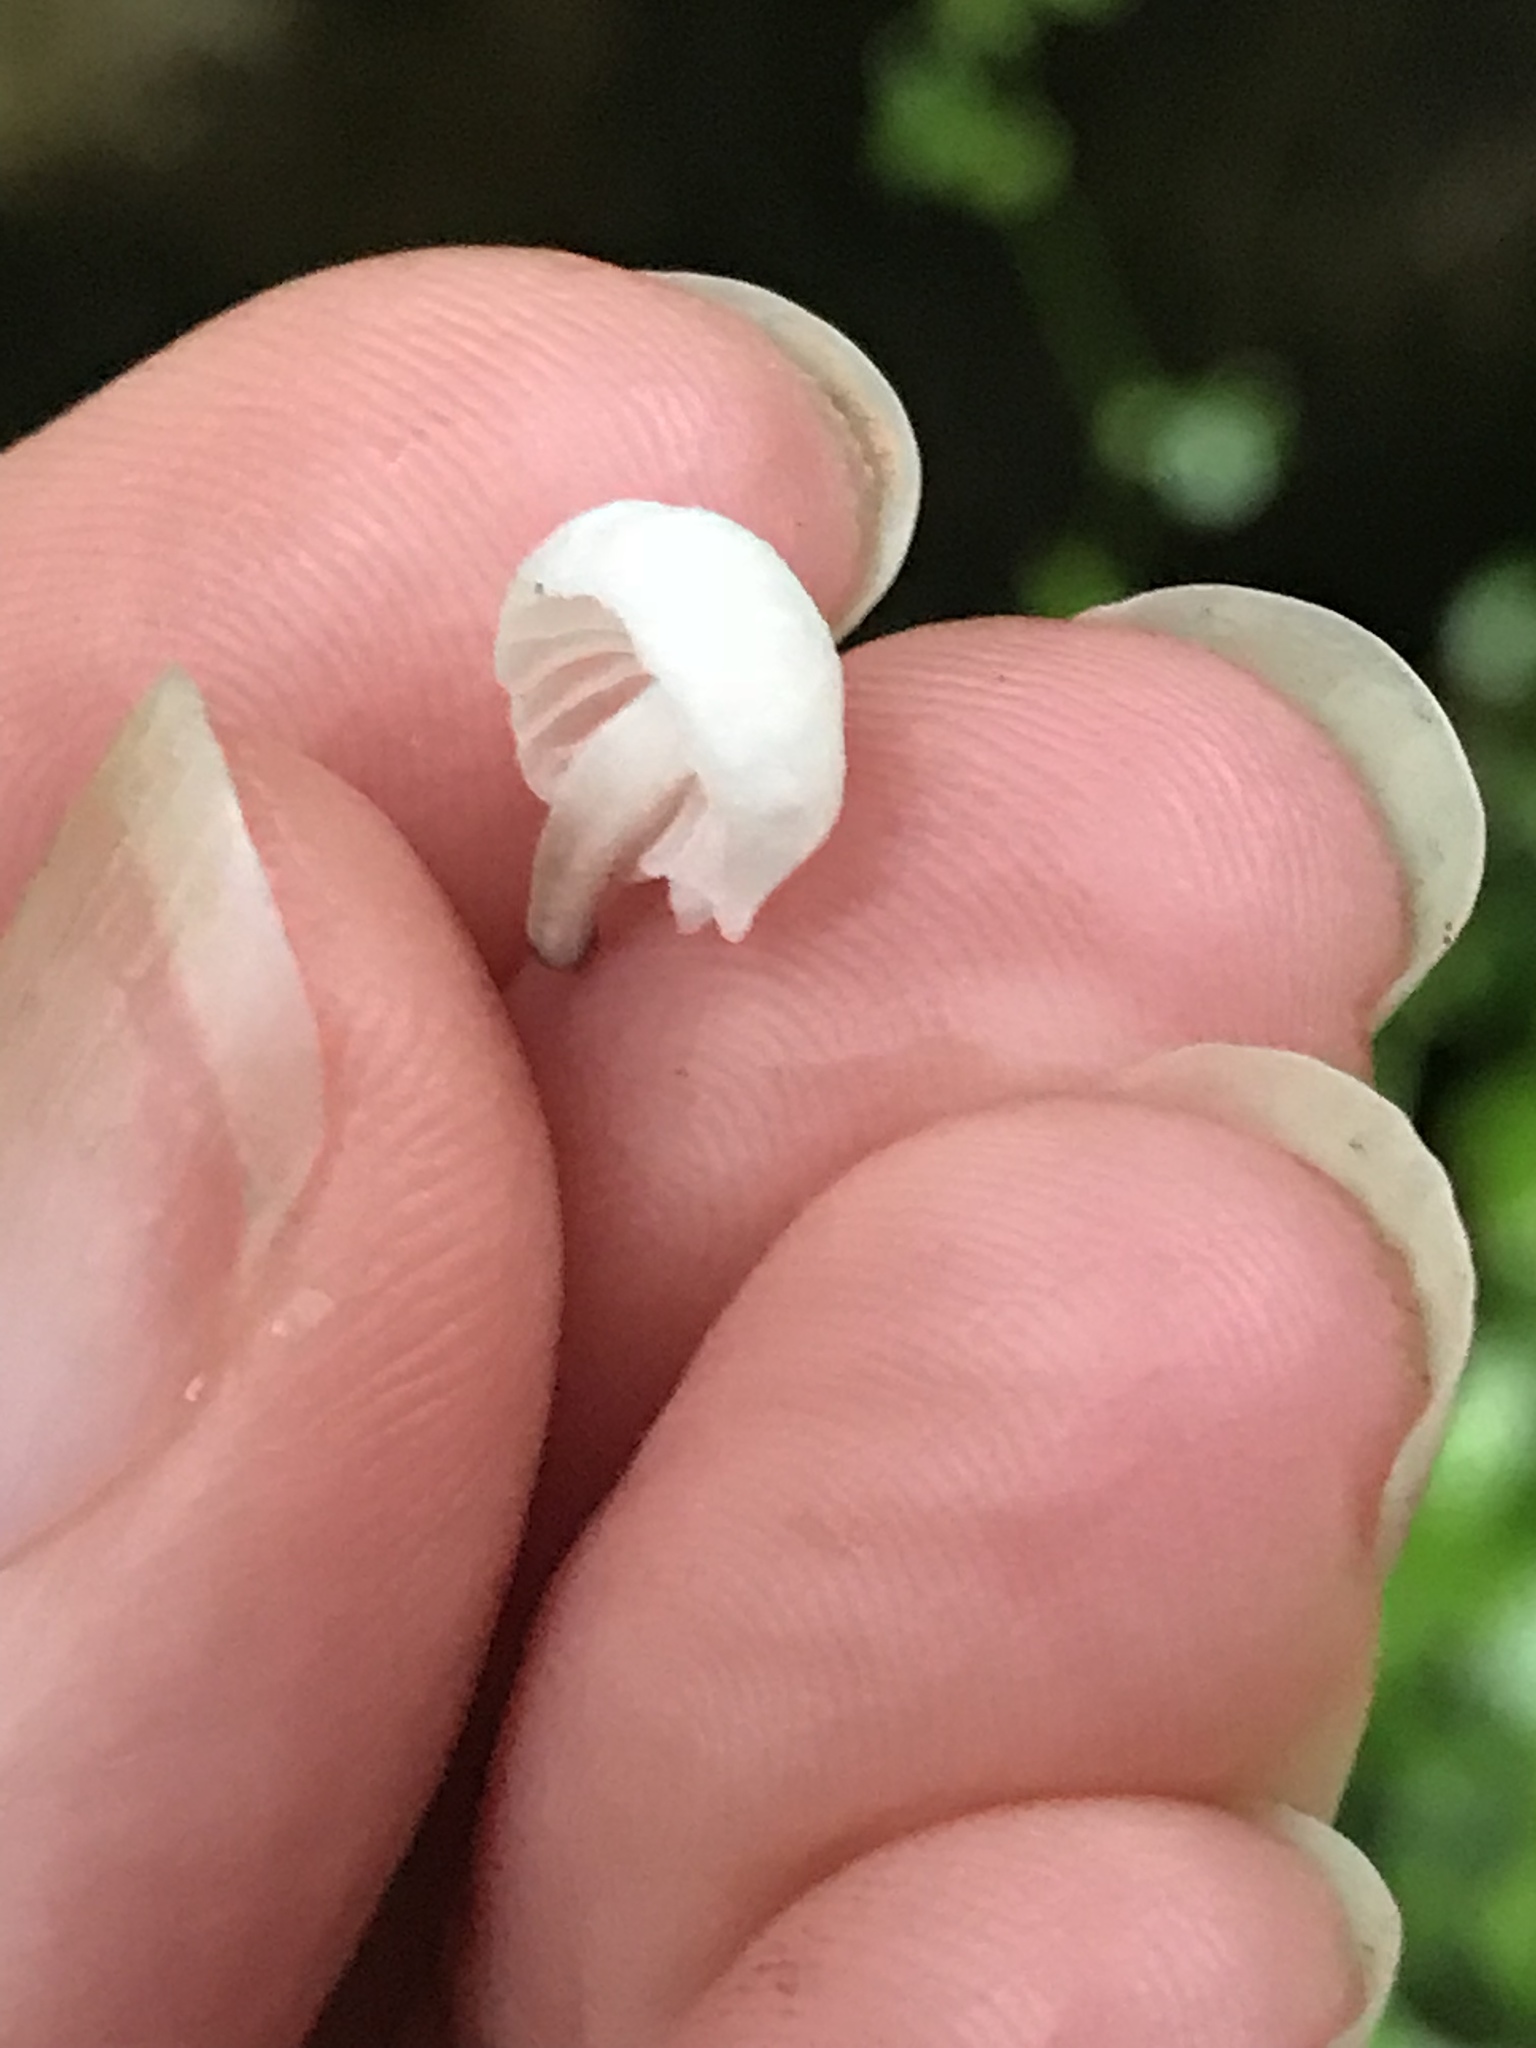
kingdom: Fungi
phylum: Basidiomycota
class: Agaricomycetes
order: Agaricales
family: Omphalotaceae
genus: Marasmiellus
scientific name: Marasmiellus candidus
